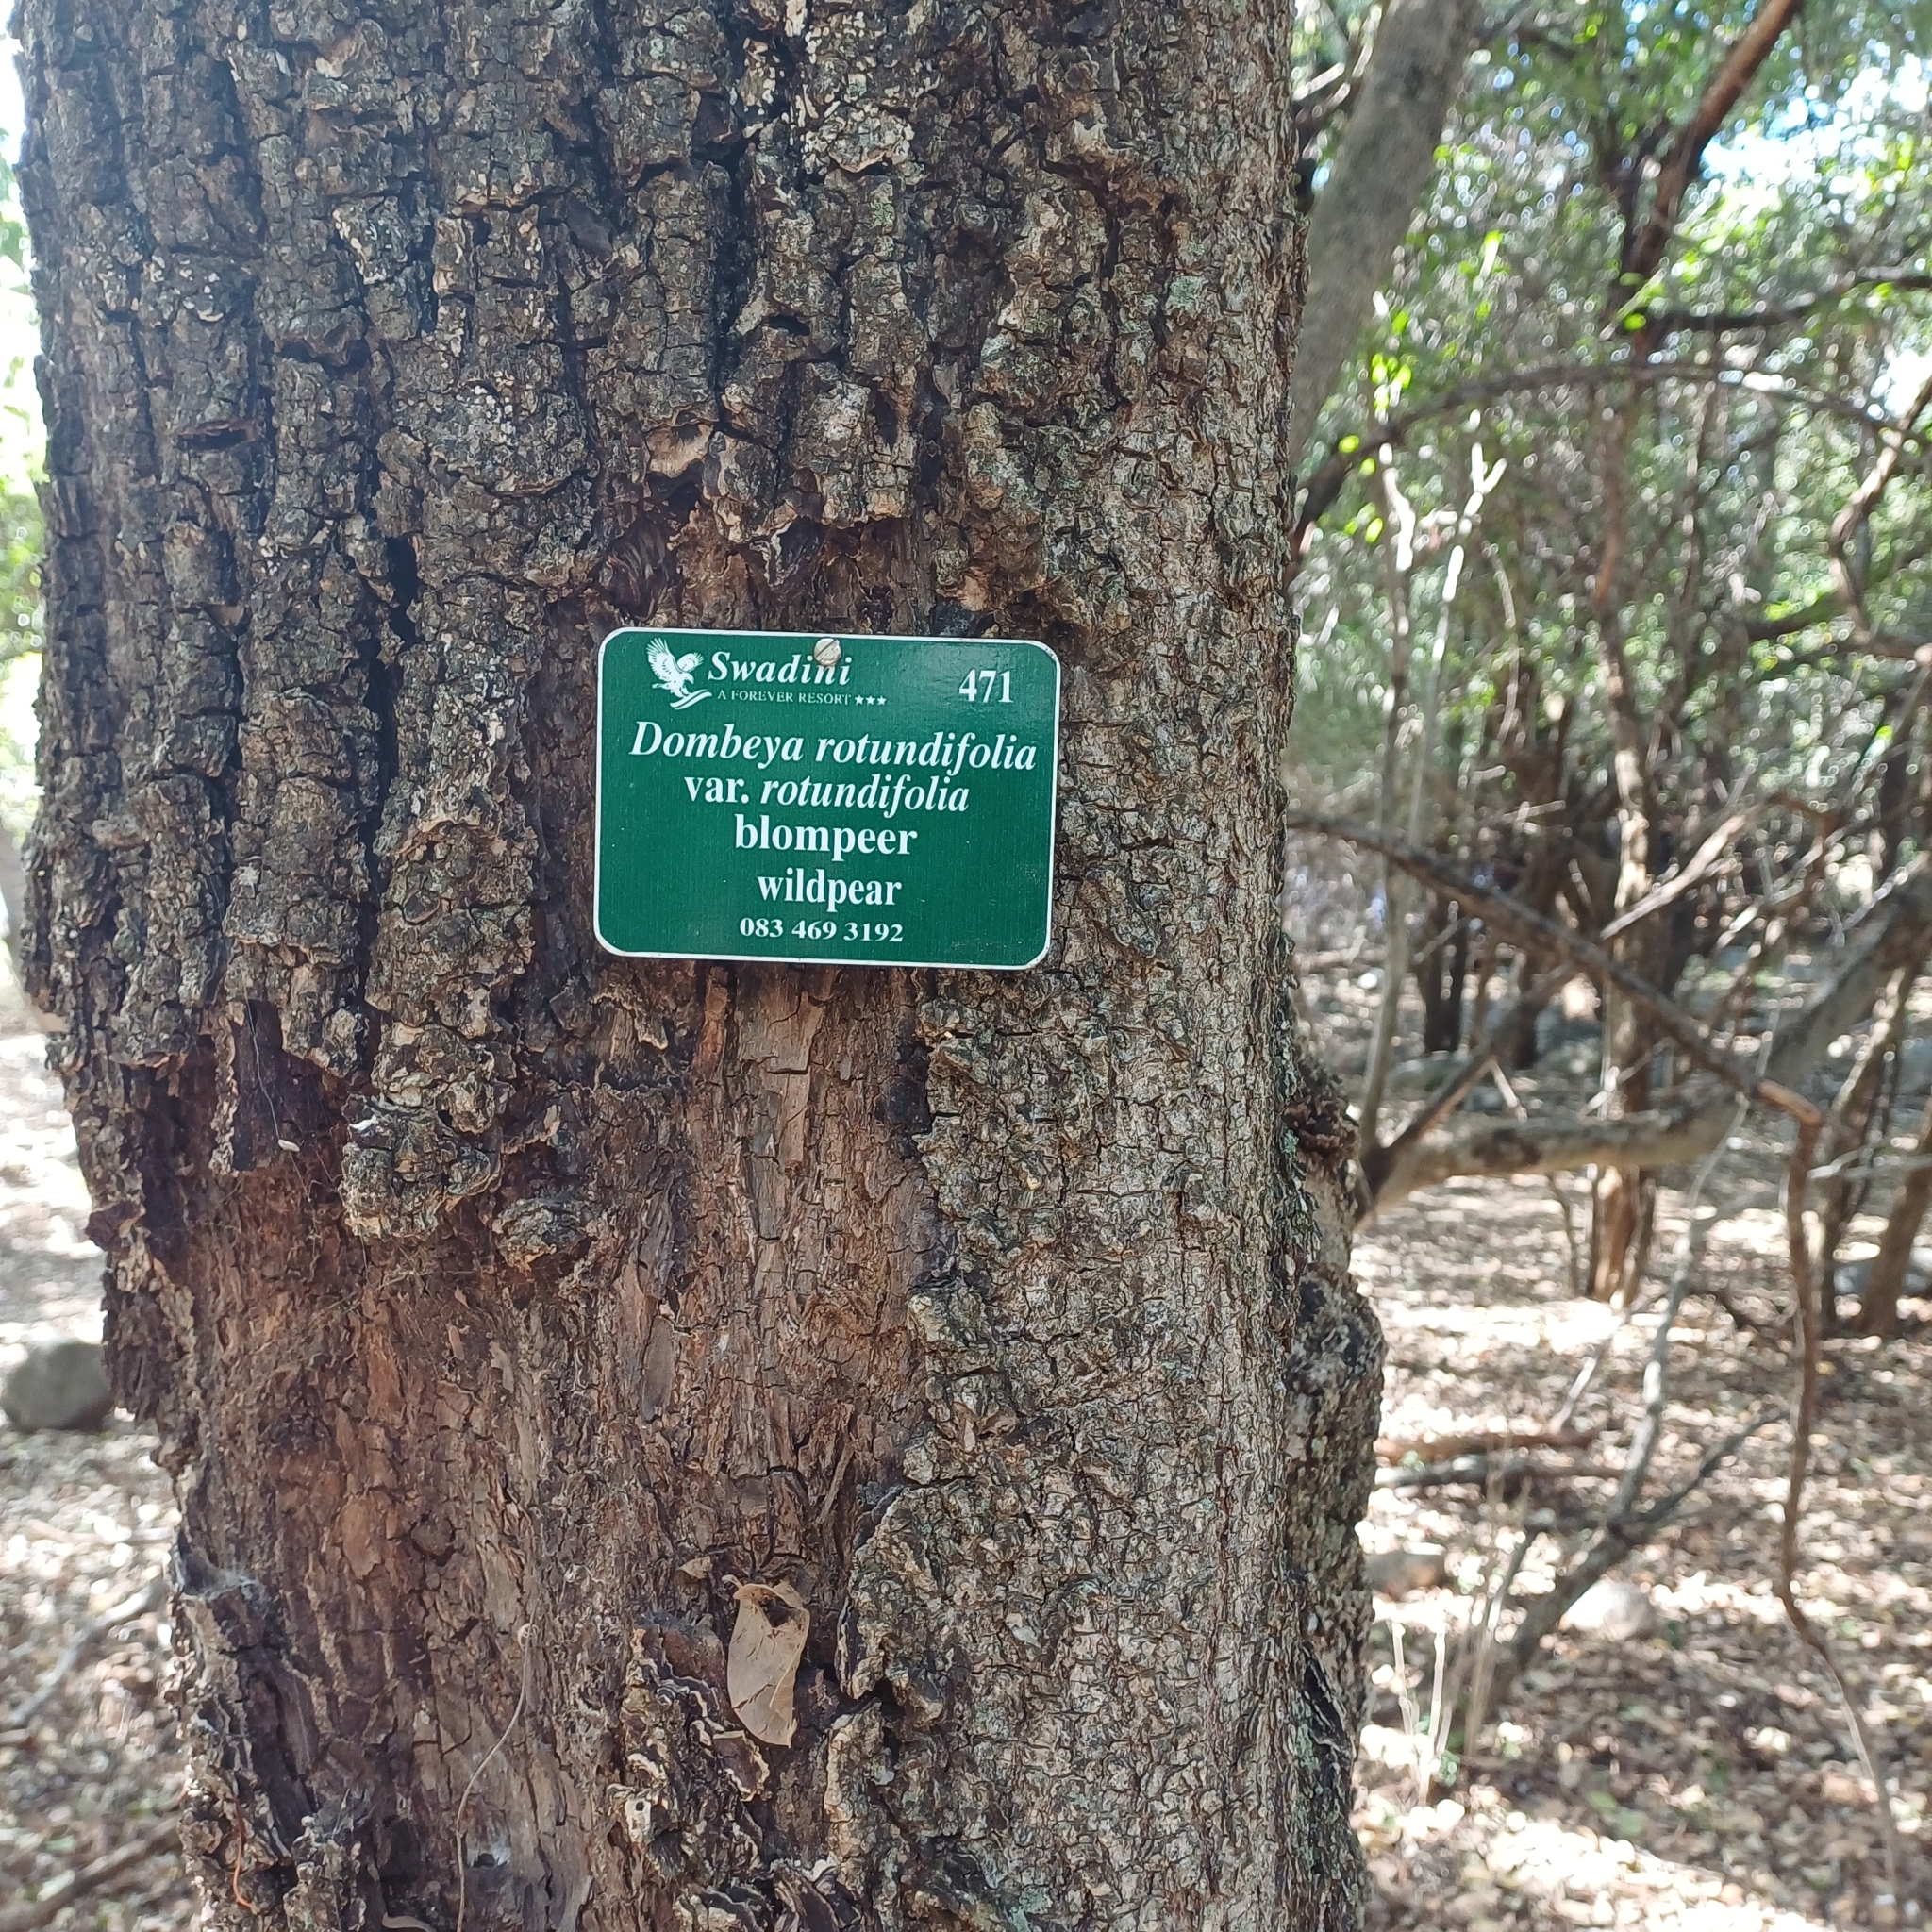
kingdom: Plantae
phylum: Tracheophyta
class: Magnoliopsida
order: Malvales
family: Malvaceae
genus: Dombeya
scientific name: Dombeya rotundifolia
